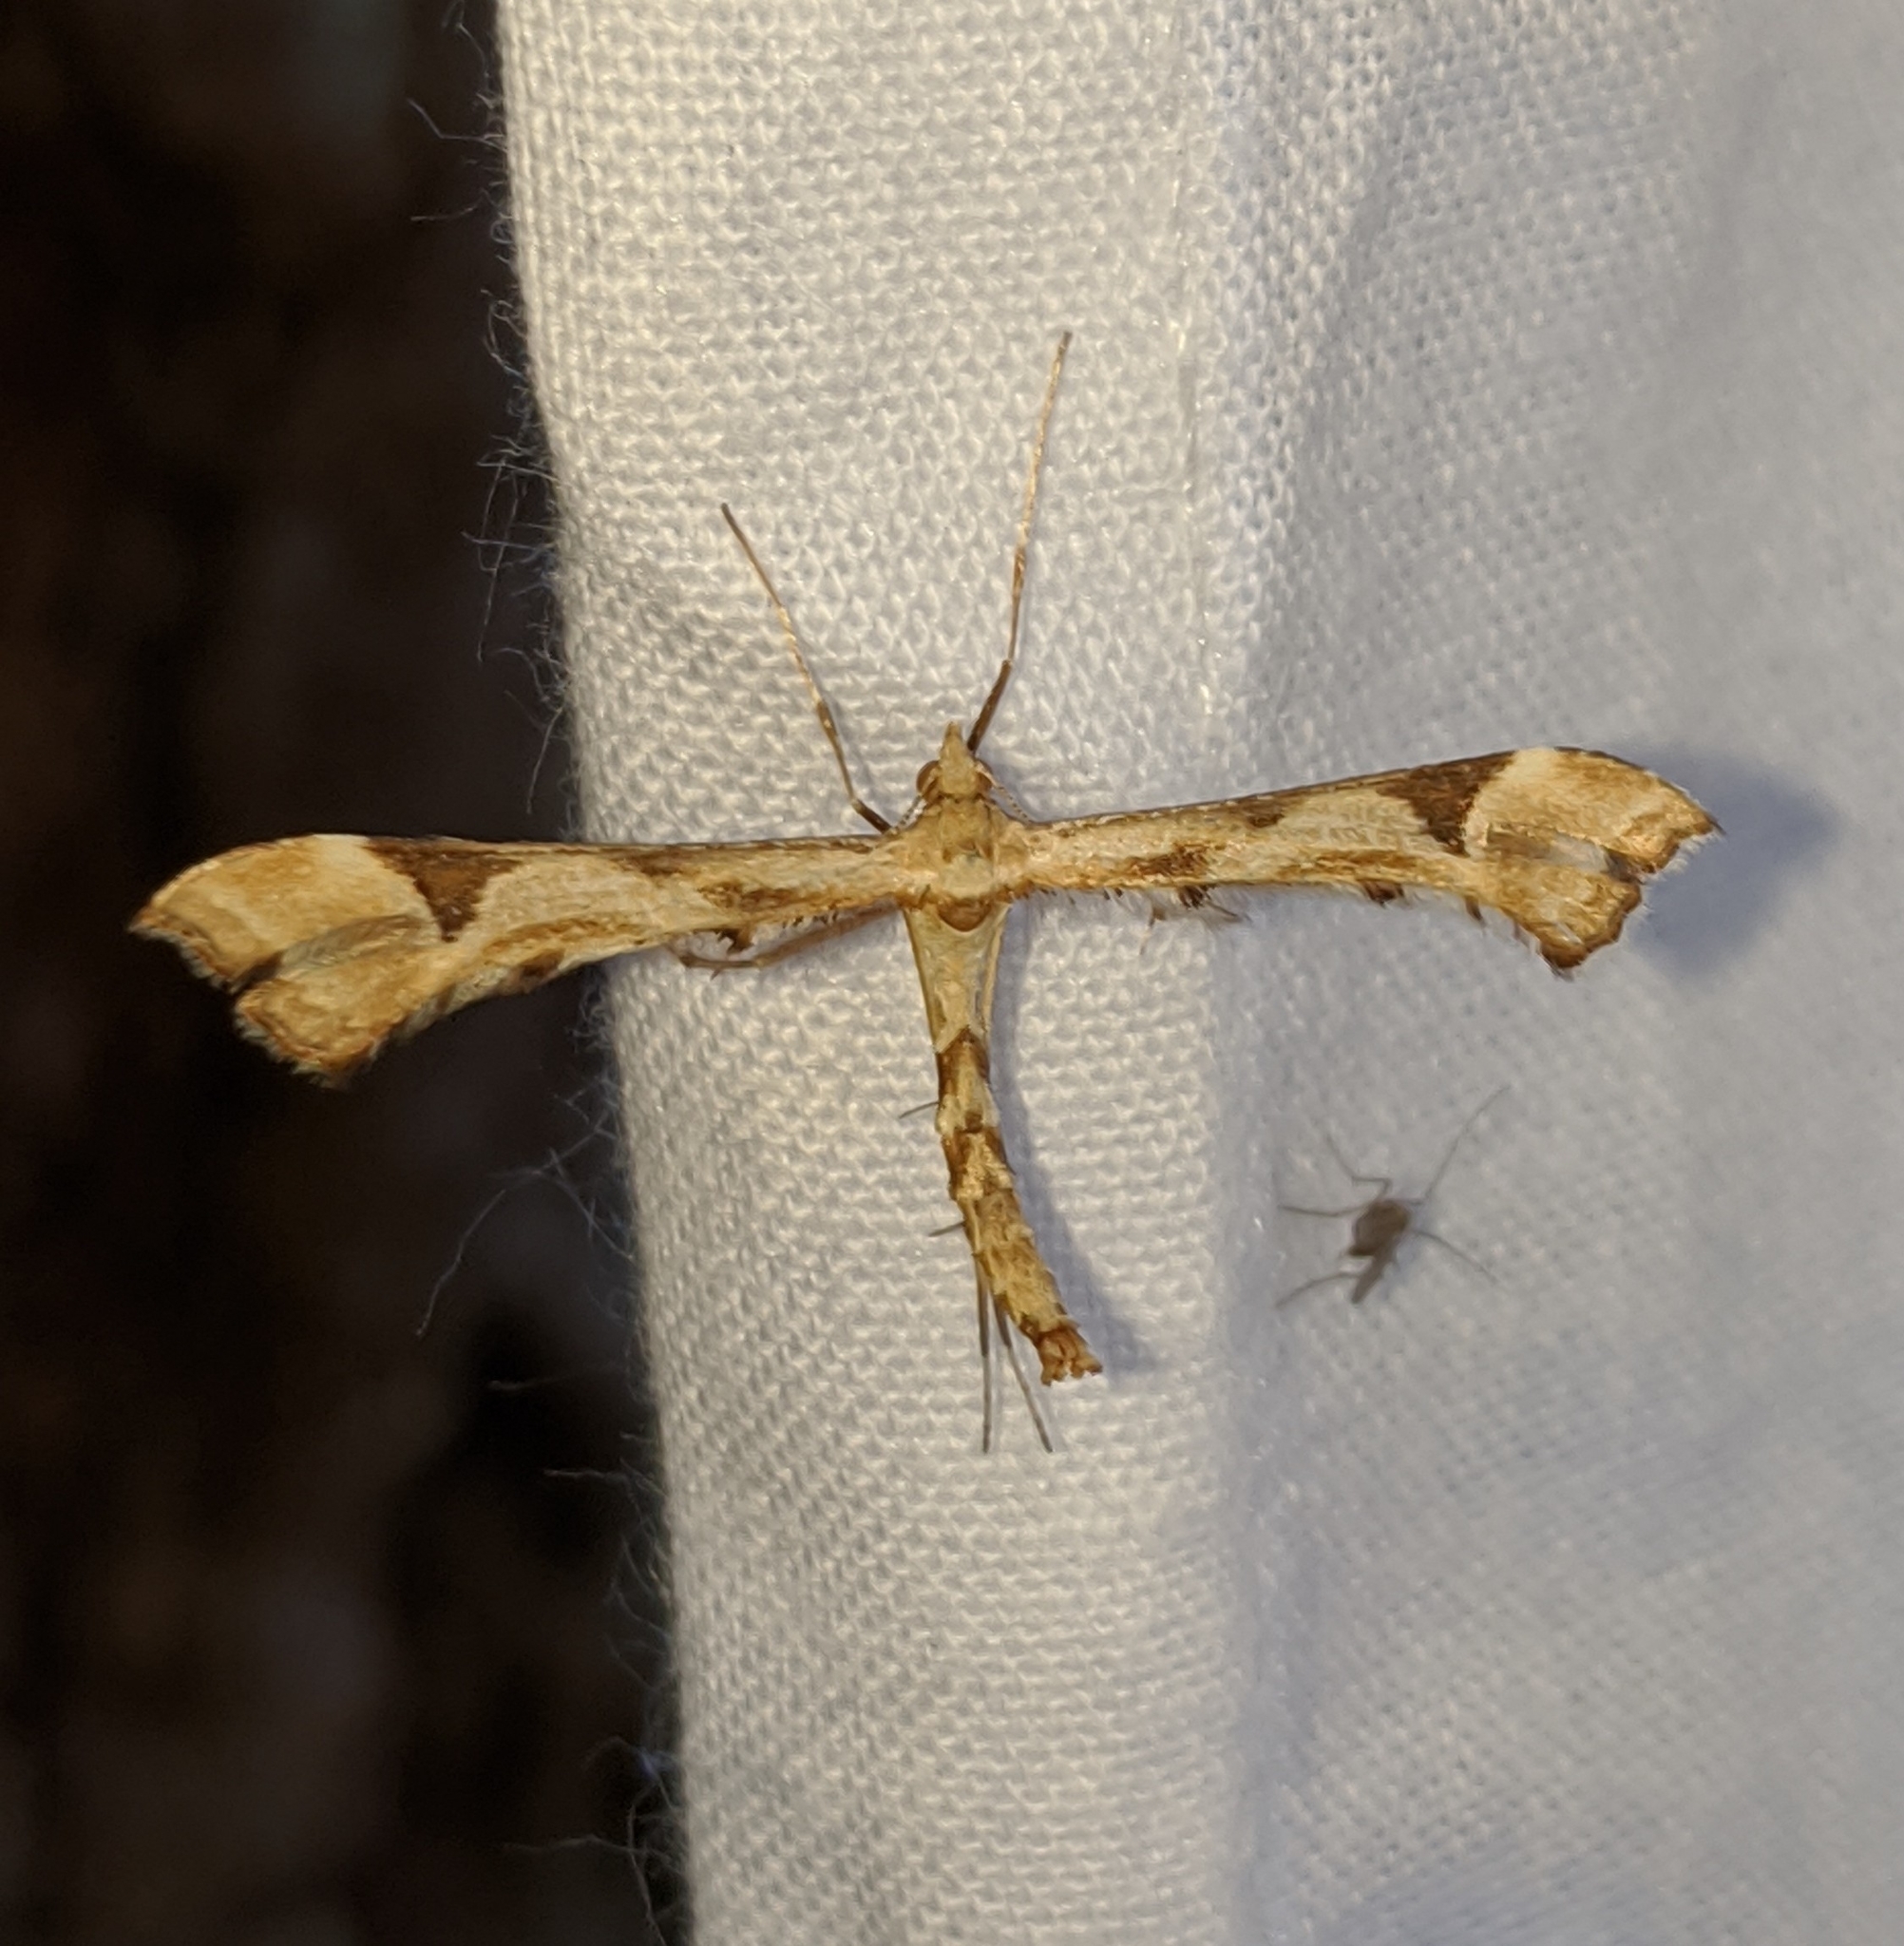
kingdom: Animalia
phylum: Arthropoda
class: Insecta
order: Lepidoptera
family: Pterophoridae
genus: Platyptilia
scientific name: Platyptilia carduidactylus
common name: Artichoke plume moth
